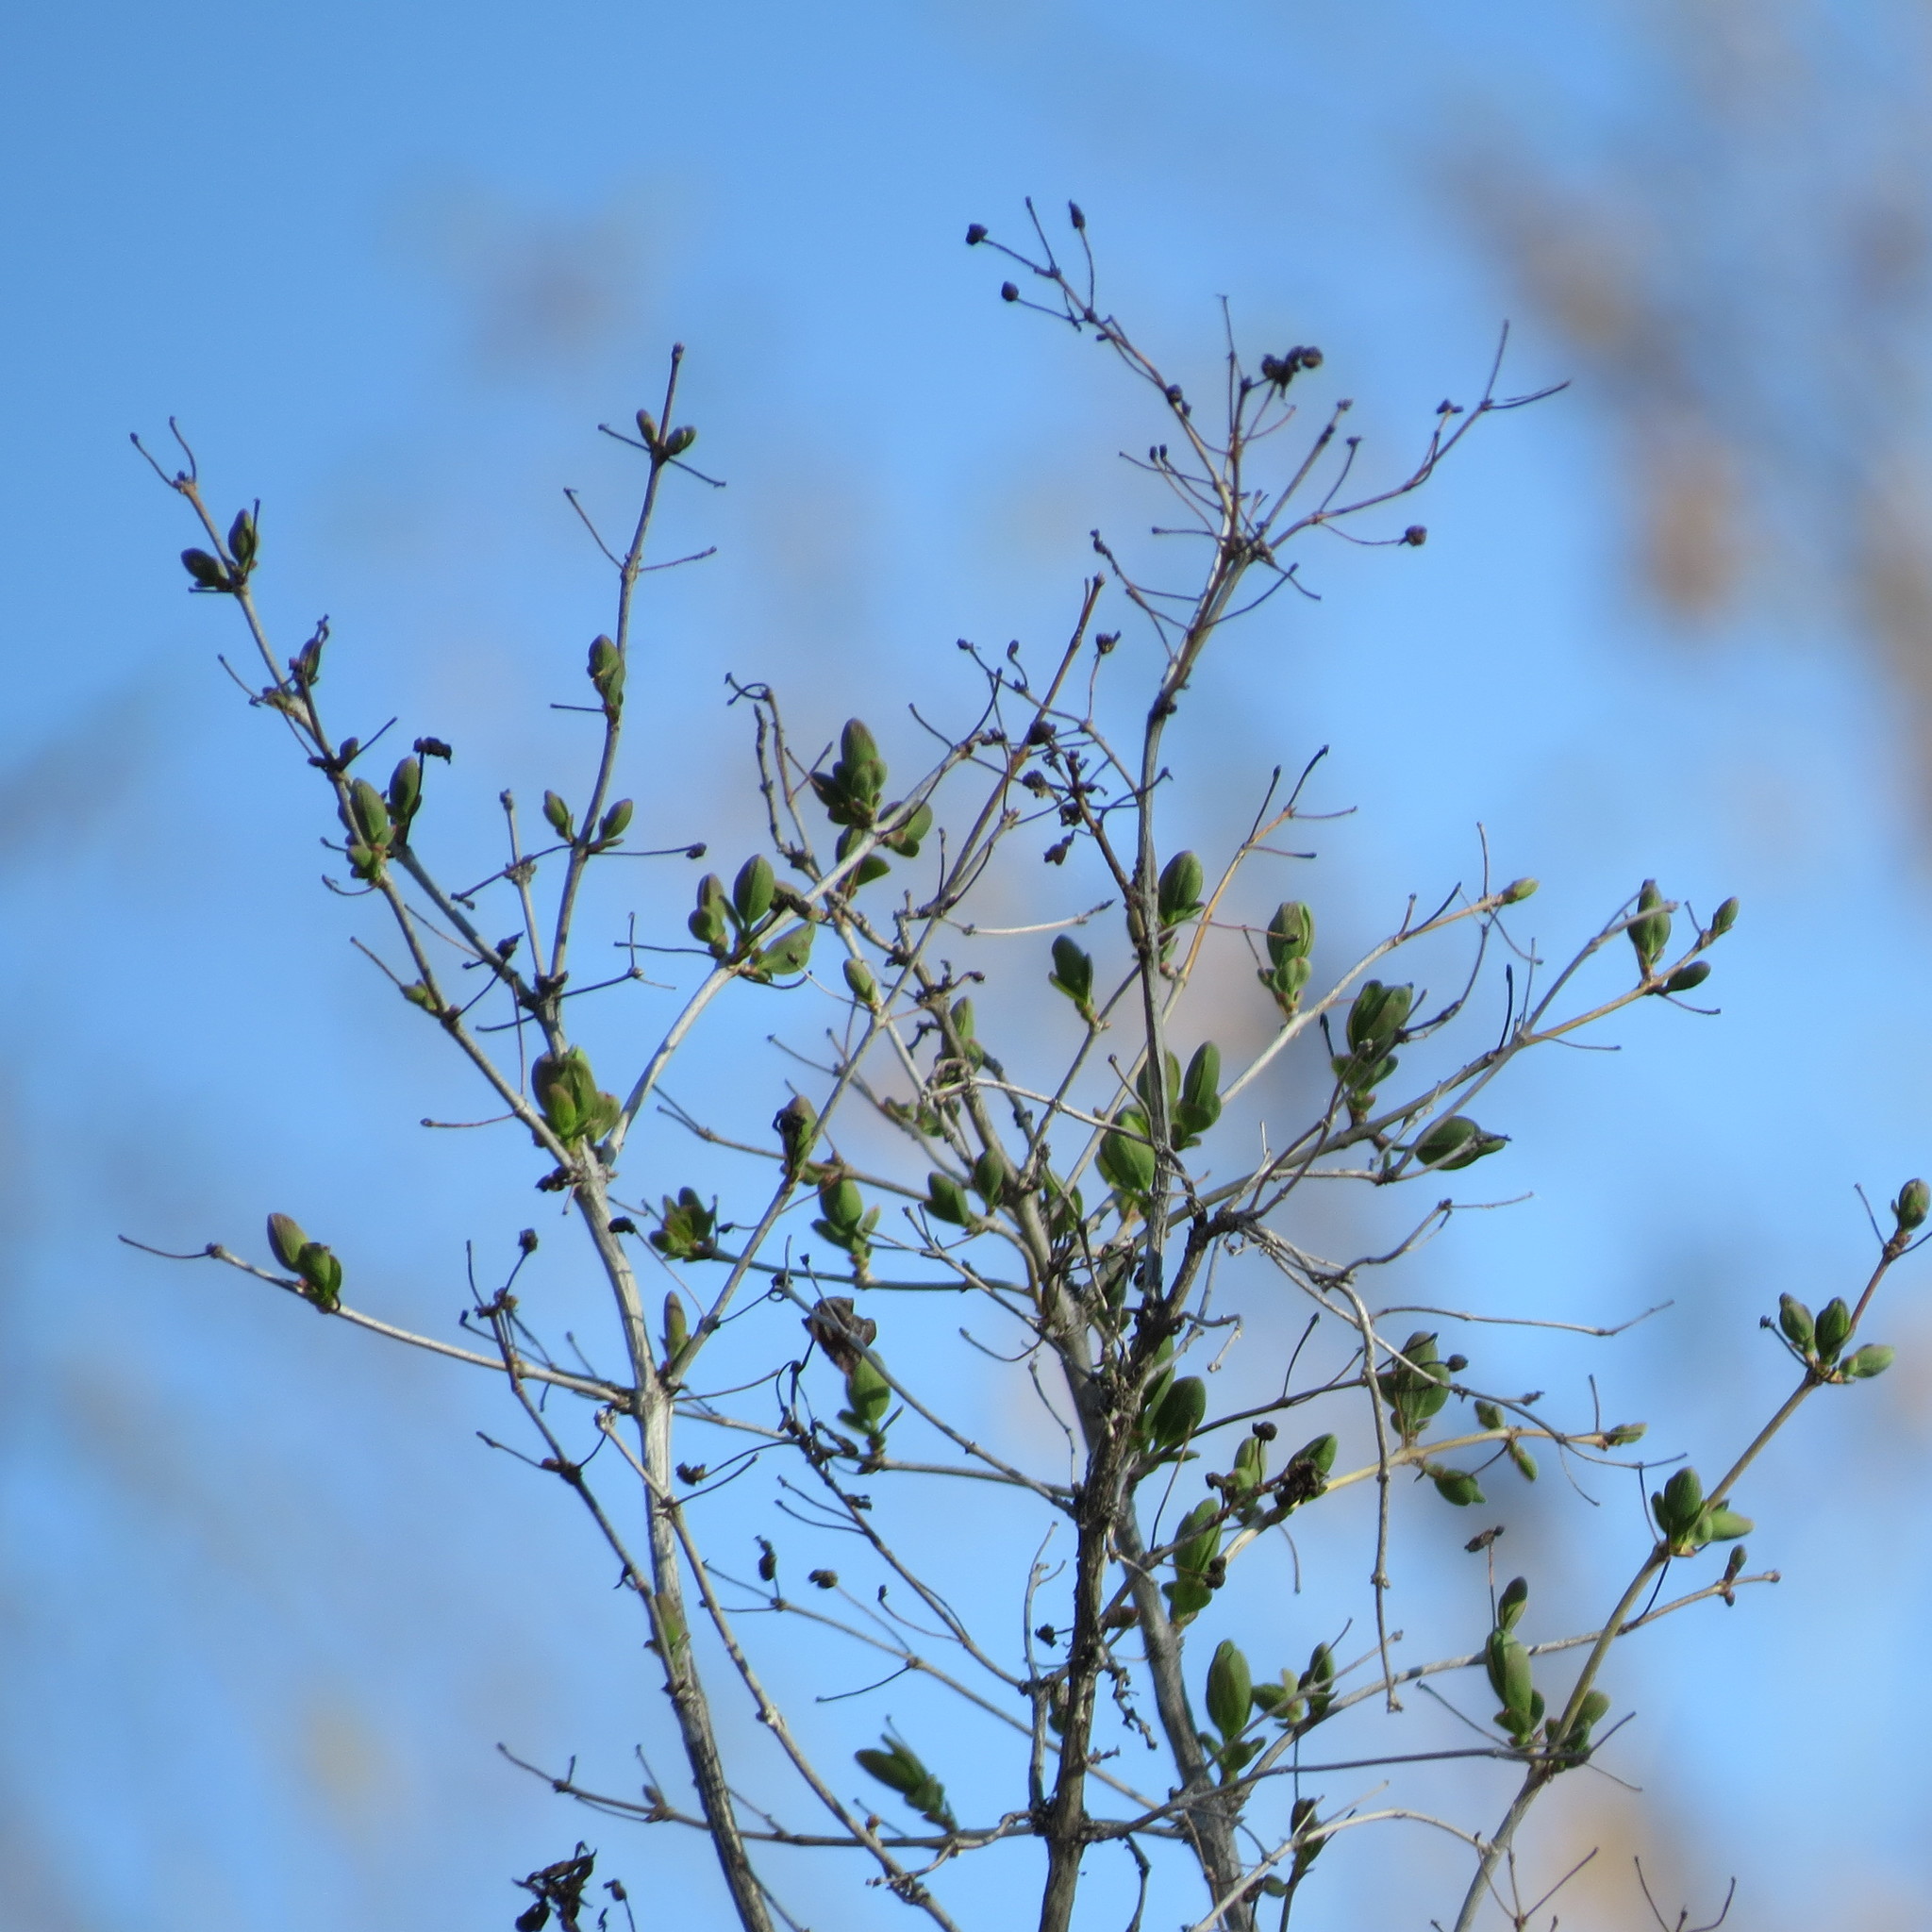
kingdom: Plantae
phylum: Tracheophyta
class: Magnoliopsida
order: Dipsacales
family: Caprifoliaceae
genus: Lonicera
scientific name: Lonicera tatarica
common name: Tatarian honeysuckle
